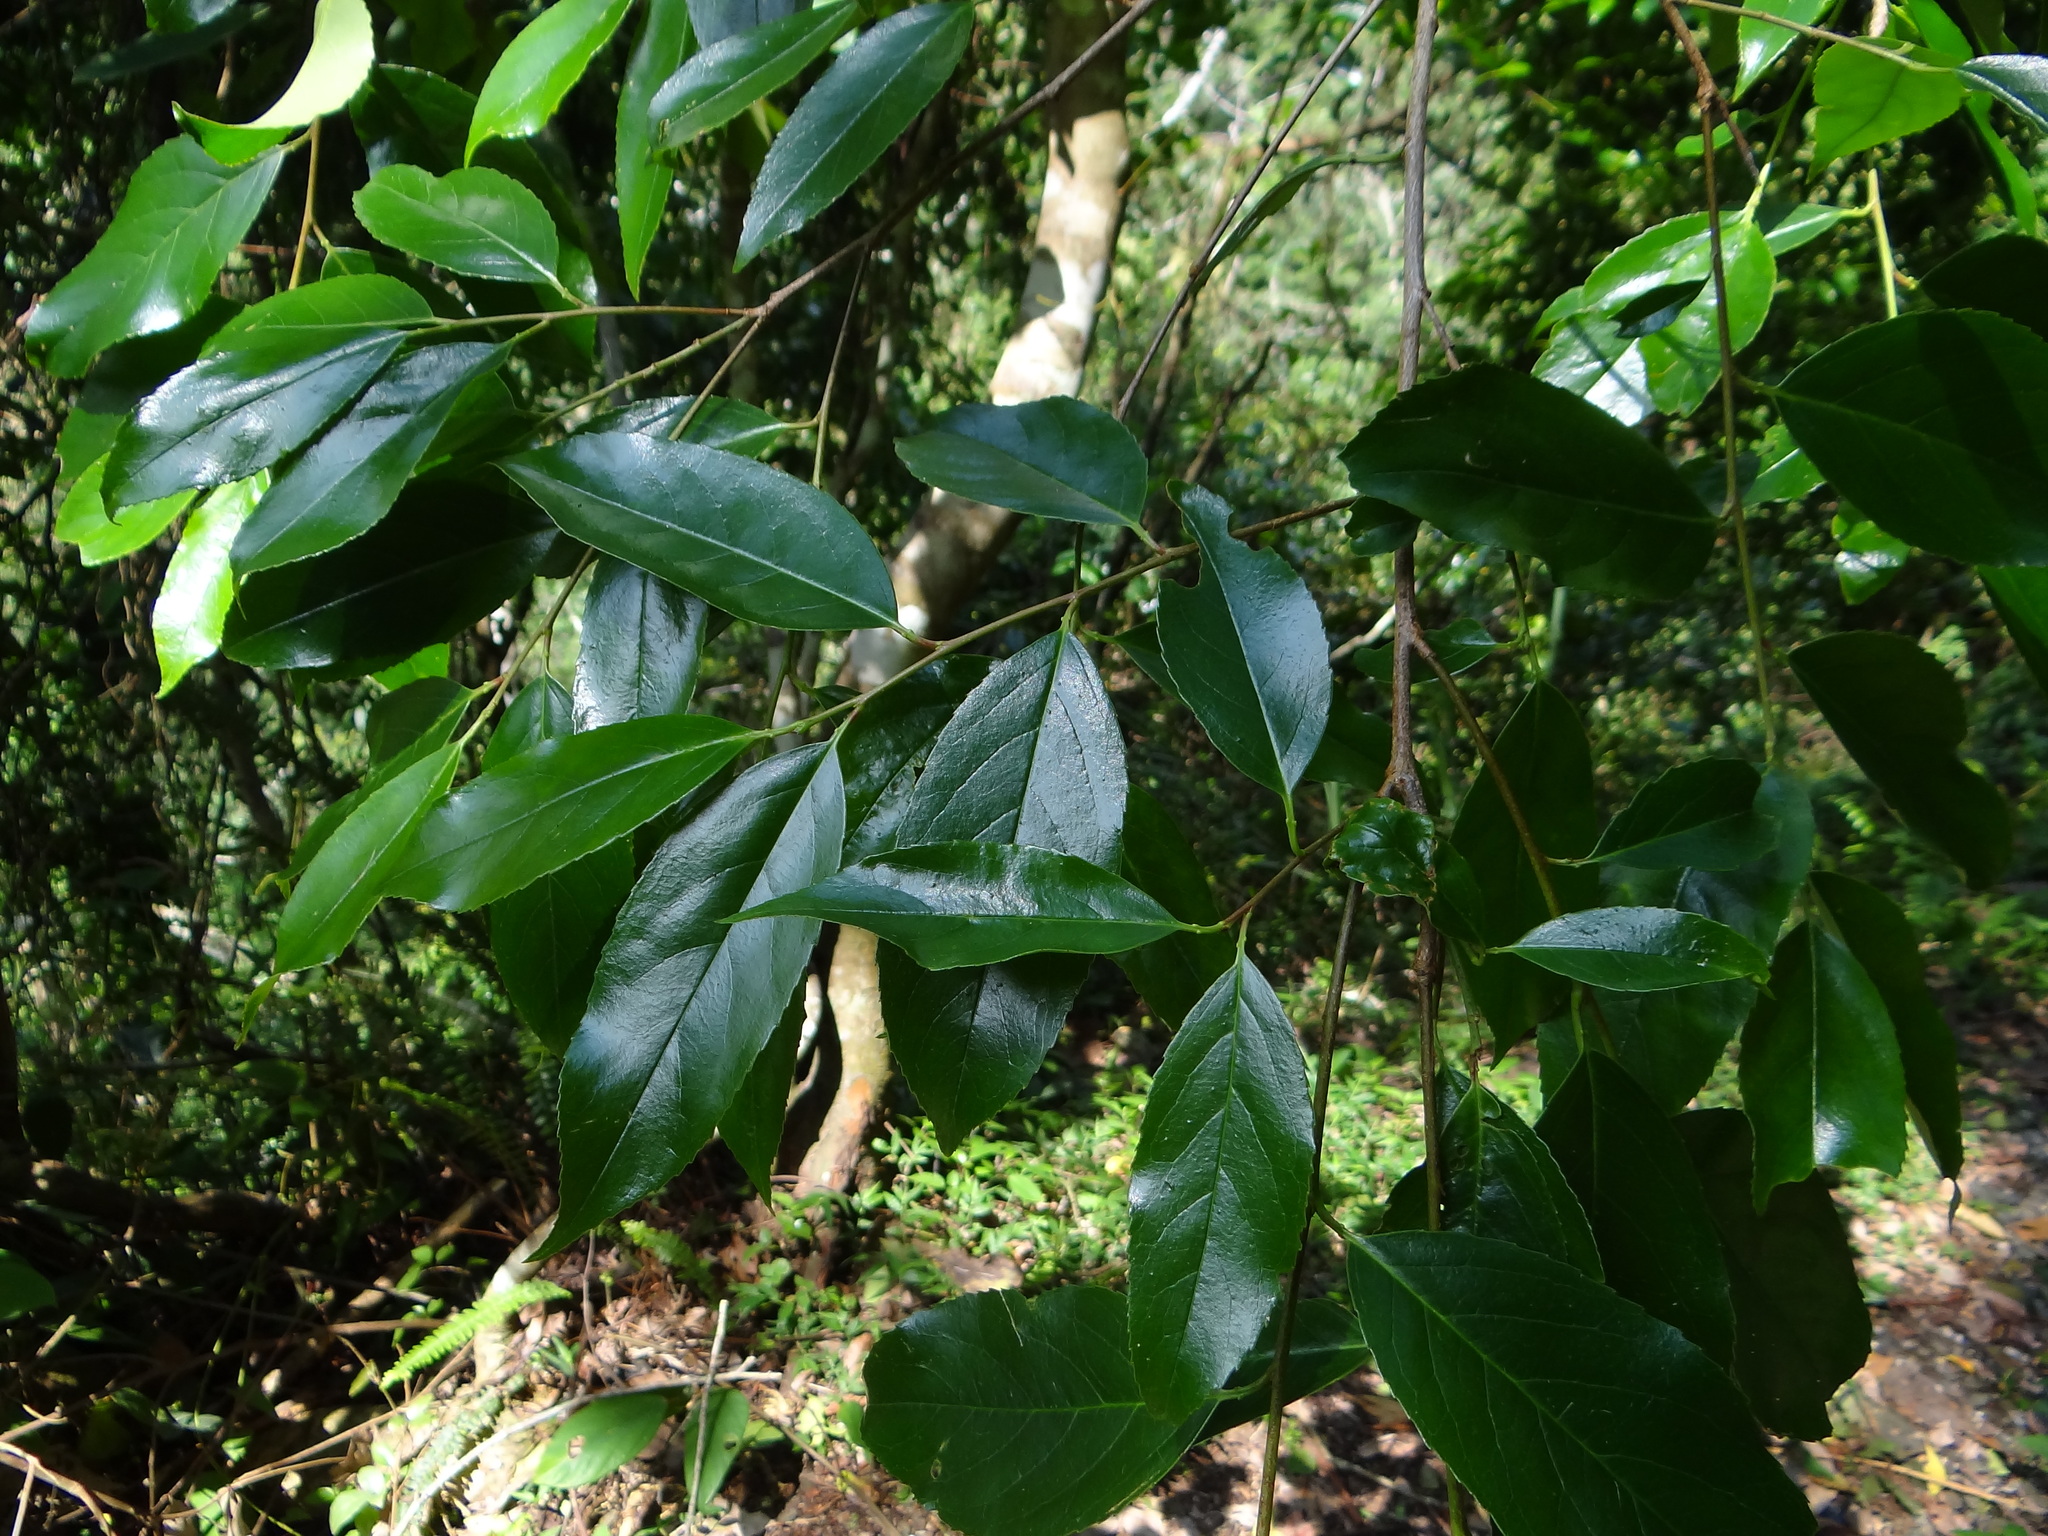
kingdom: Plantae
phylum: Tracheophyta
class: Magnoliopsida
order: Rosales
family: Rosaceae
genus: Prunus
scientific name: Prunus zippeliana
